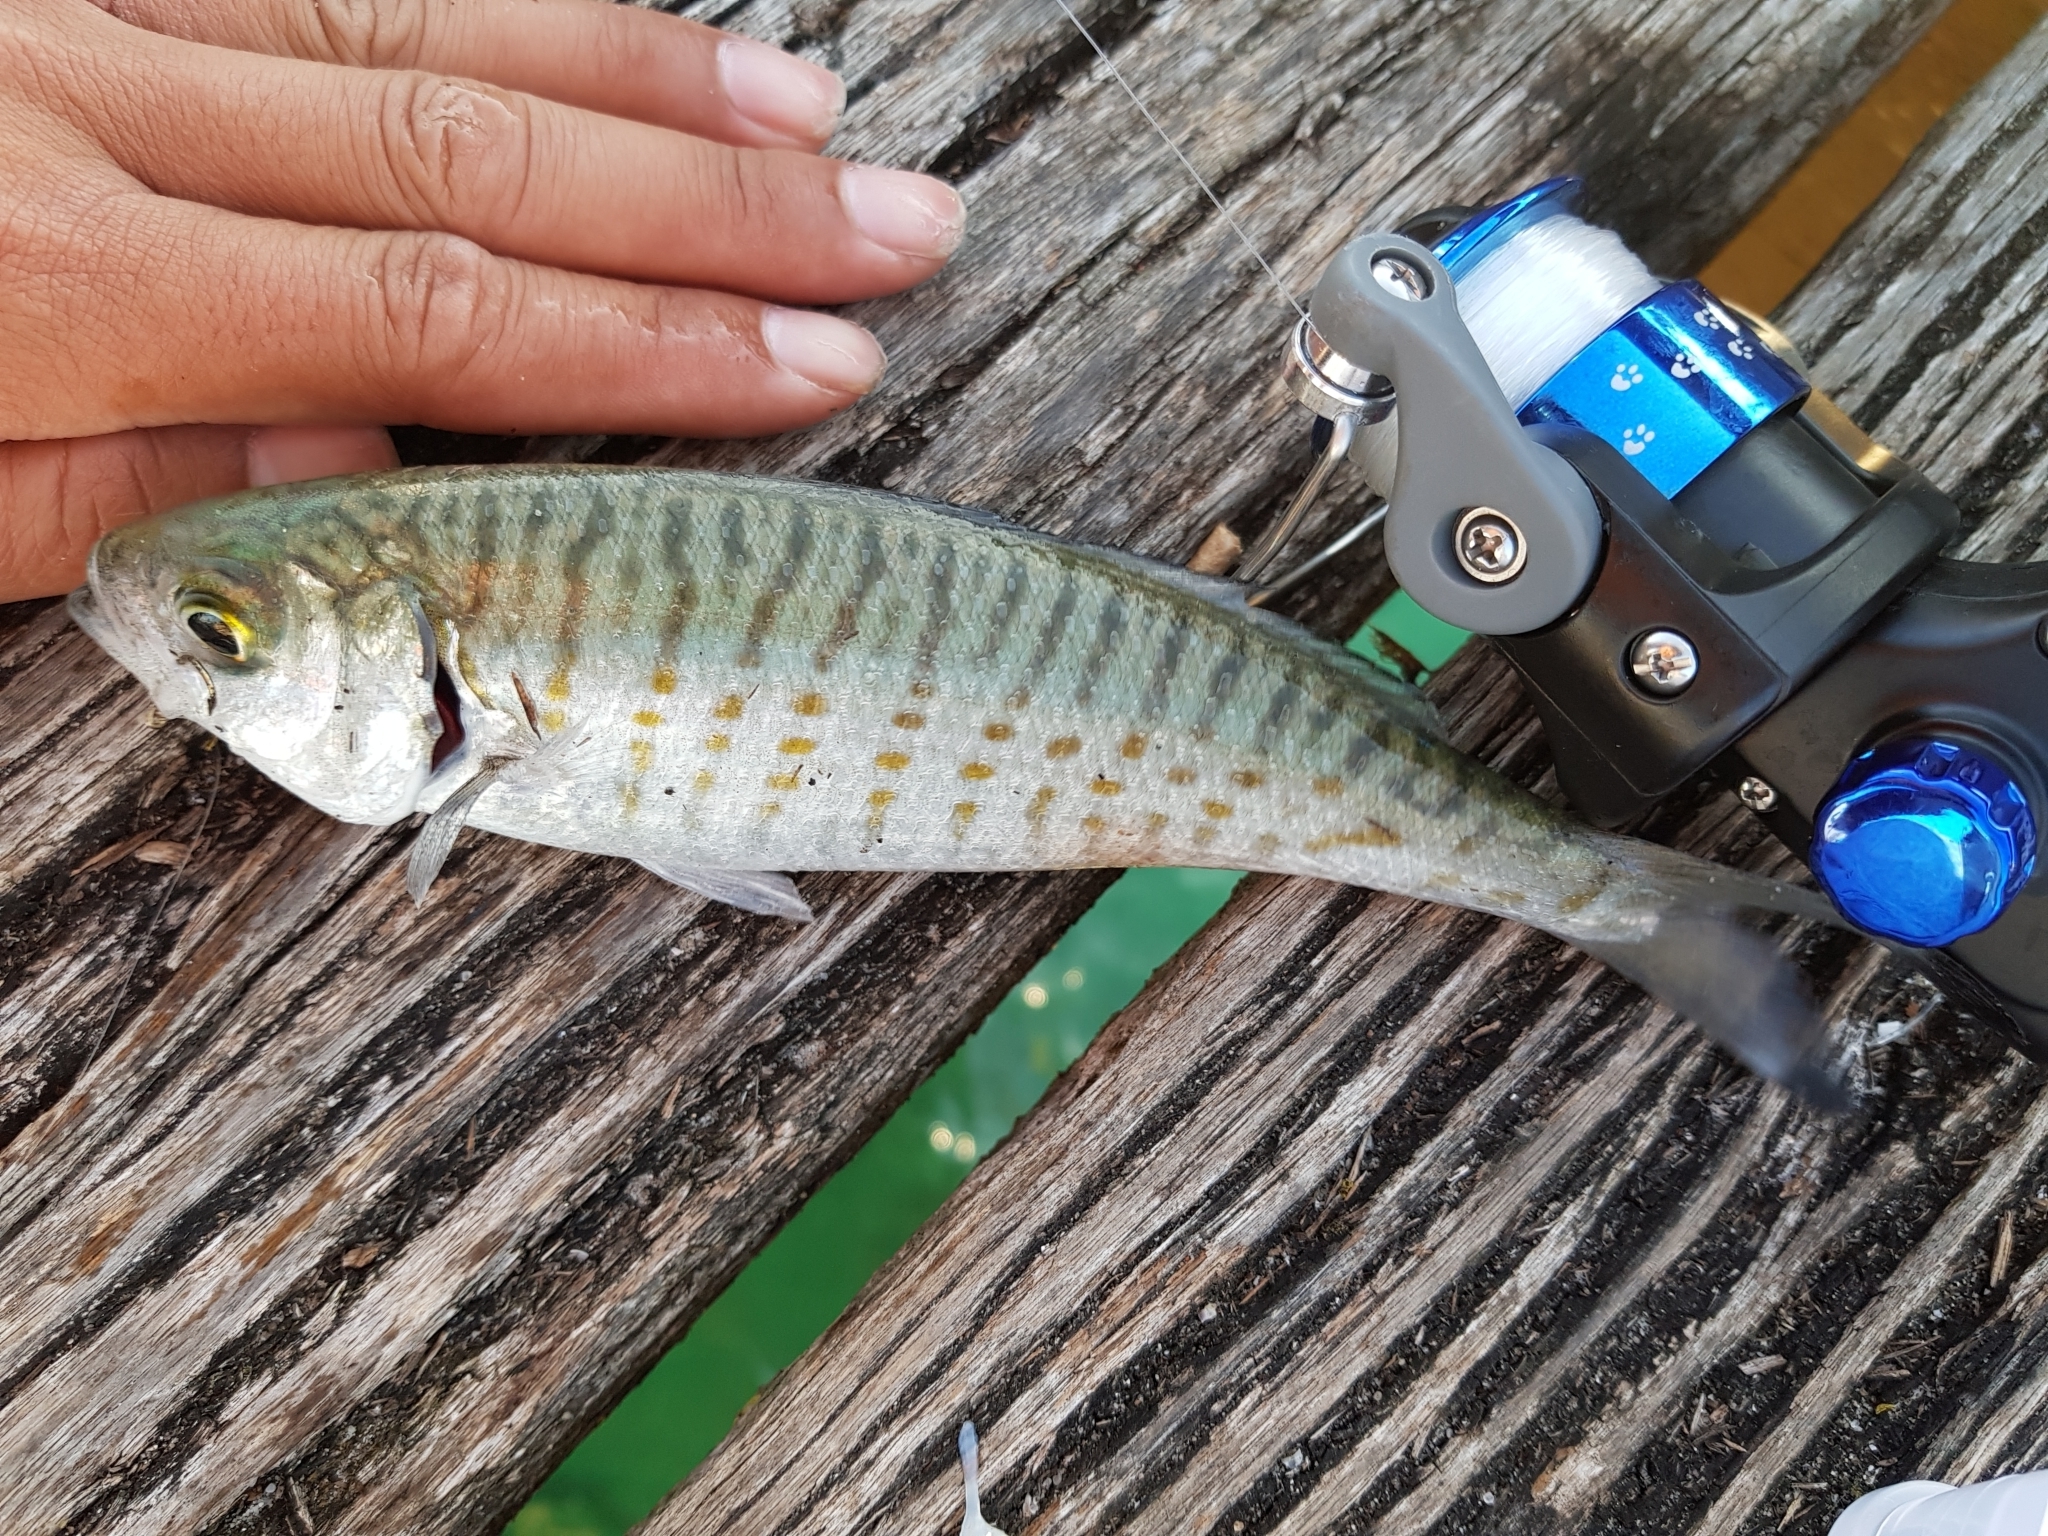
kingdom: Animalia
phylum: Chordata
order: Perciformes
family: Arripidae
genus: Arripis
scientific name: Arripis georgianus
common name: Australian herring
